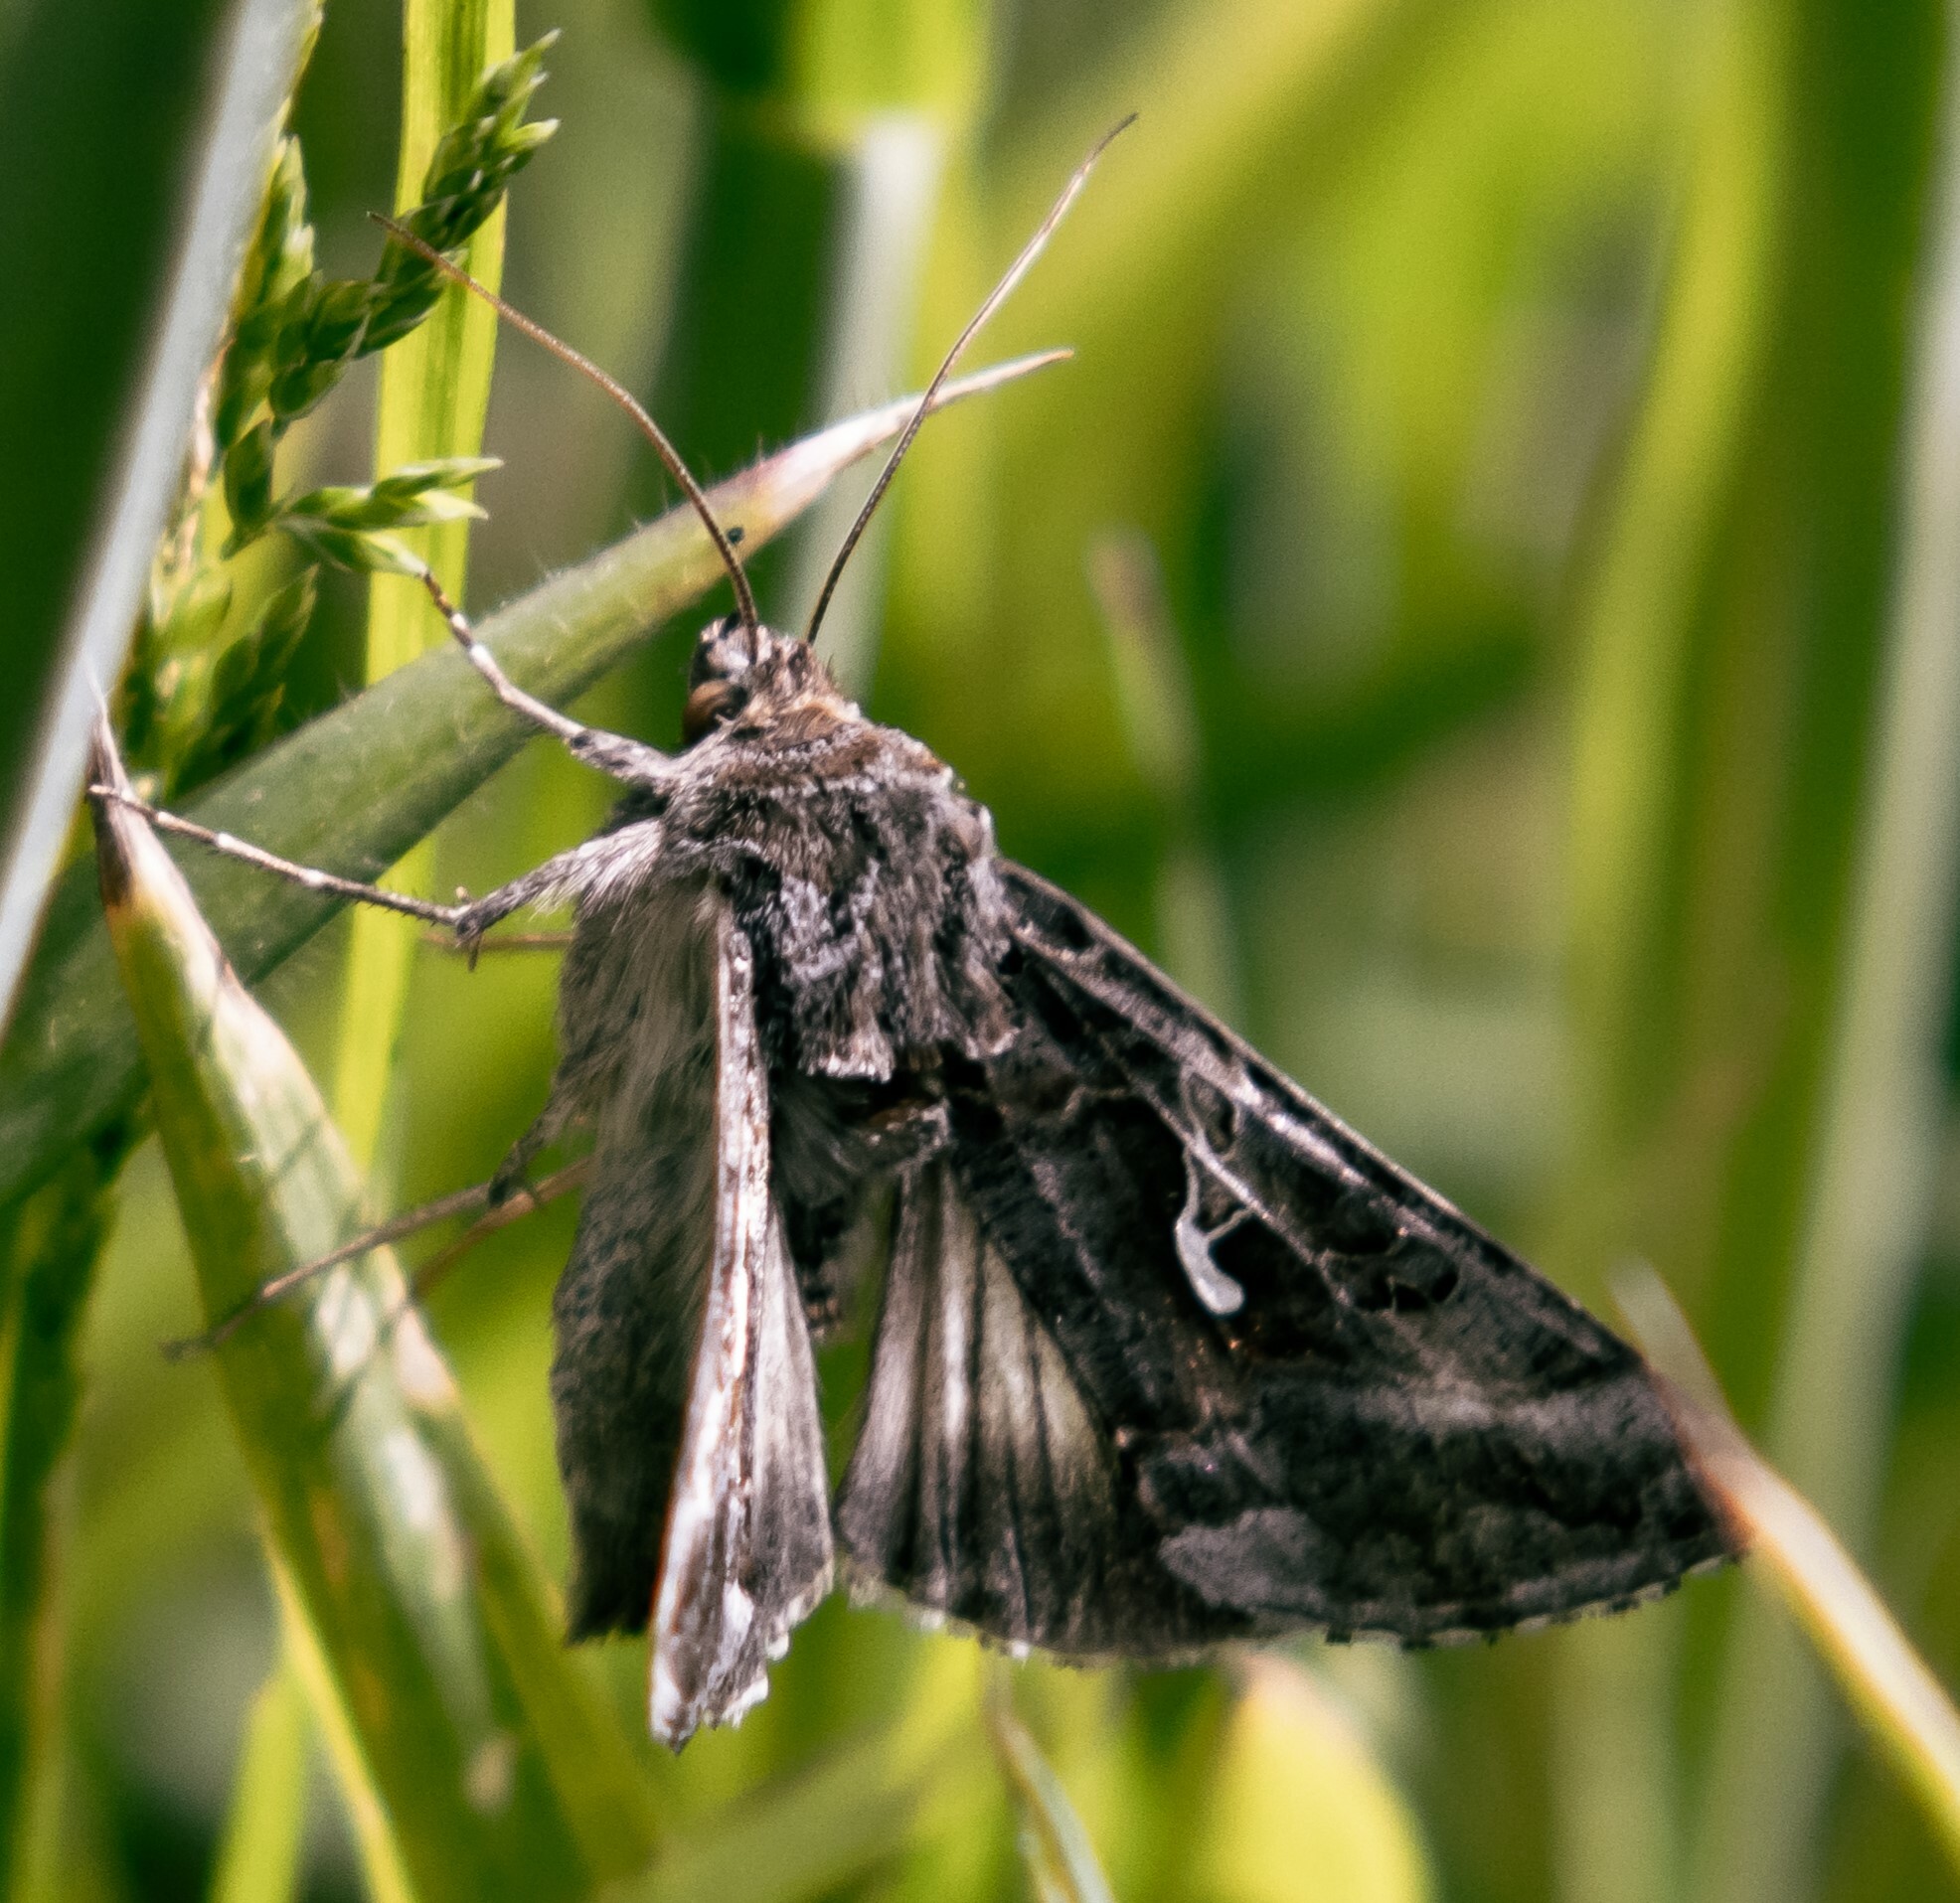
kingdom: Animalia
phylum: Arthropoda
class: Insecta
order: Lepidoptera
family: Noctuidae
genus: Autographa
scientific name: Autographa gamma
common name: Silver y
